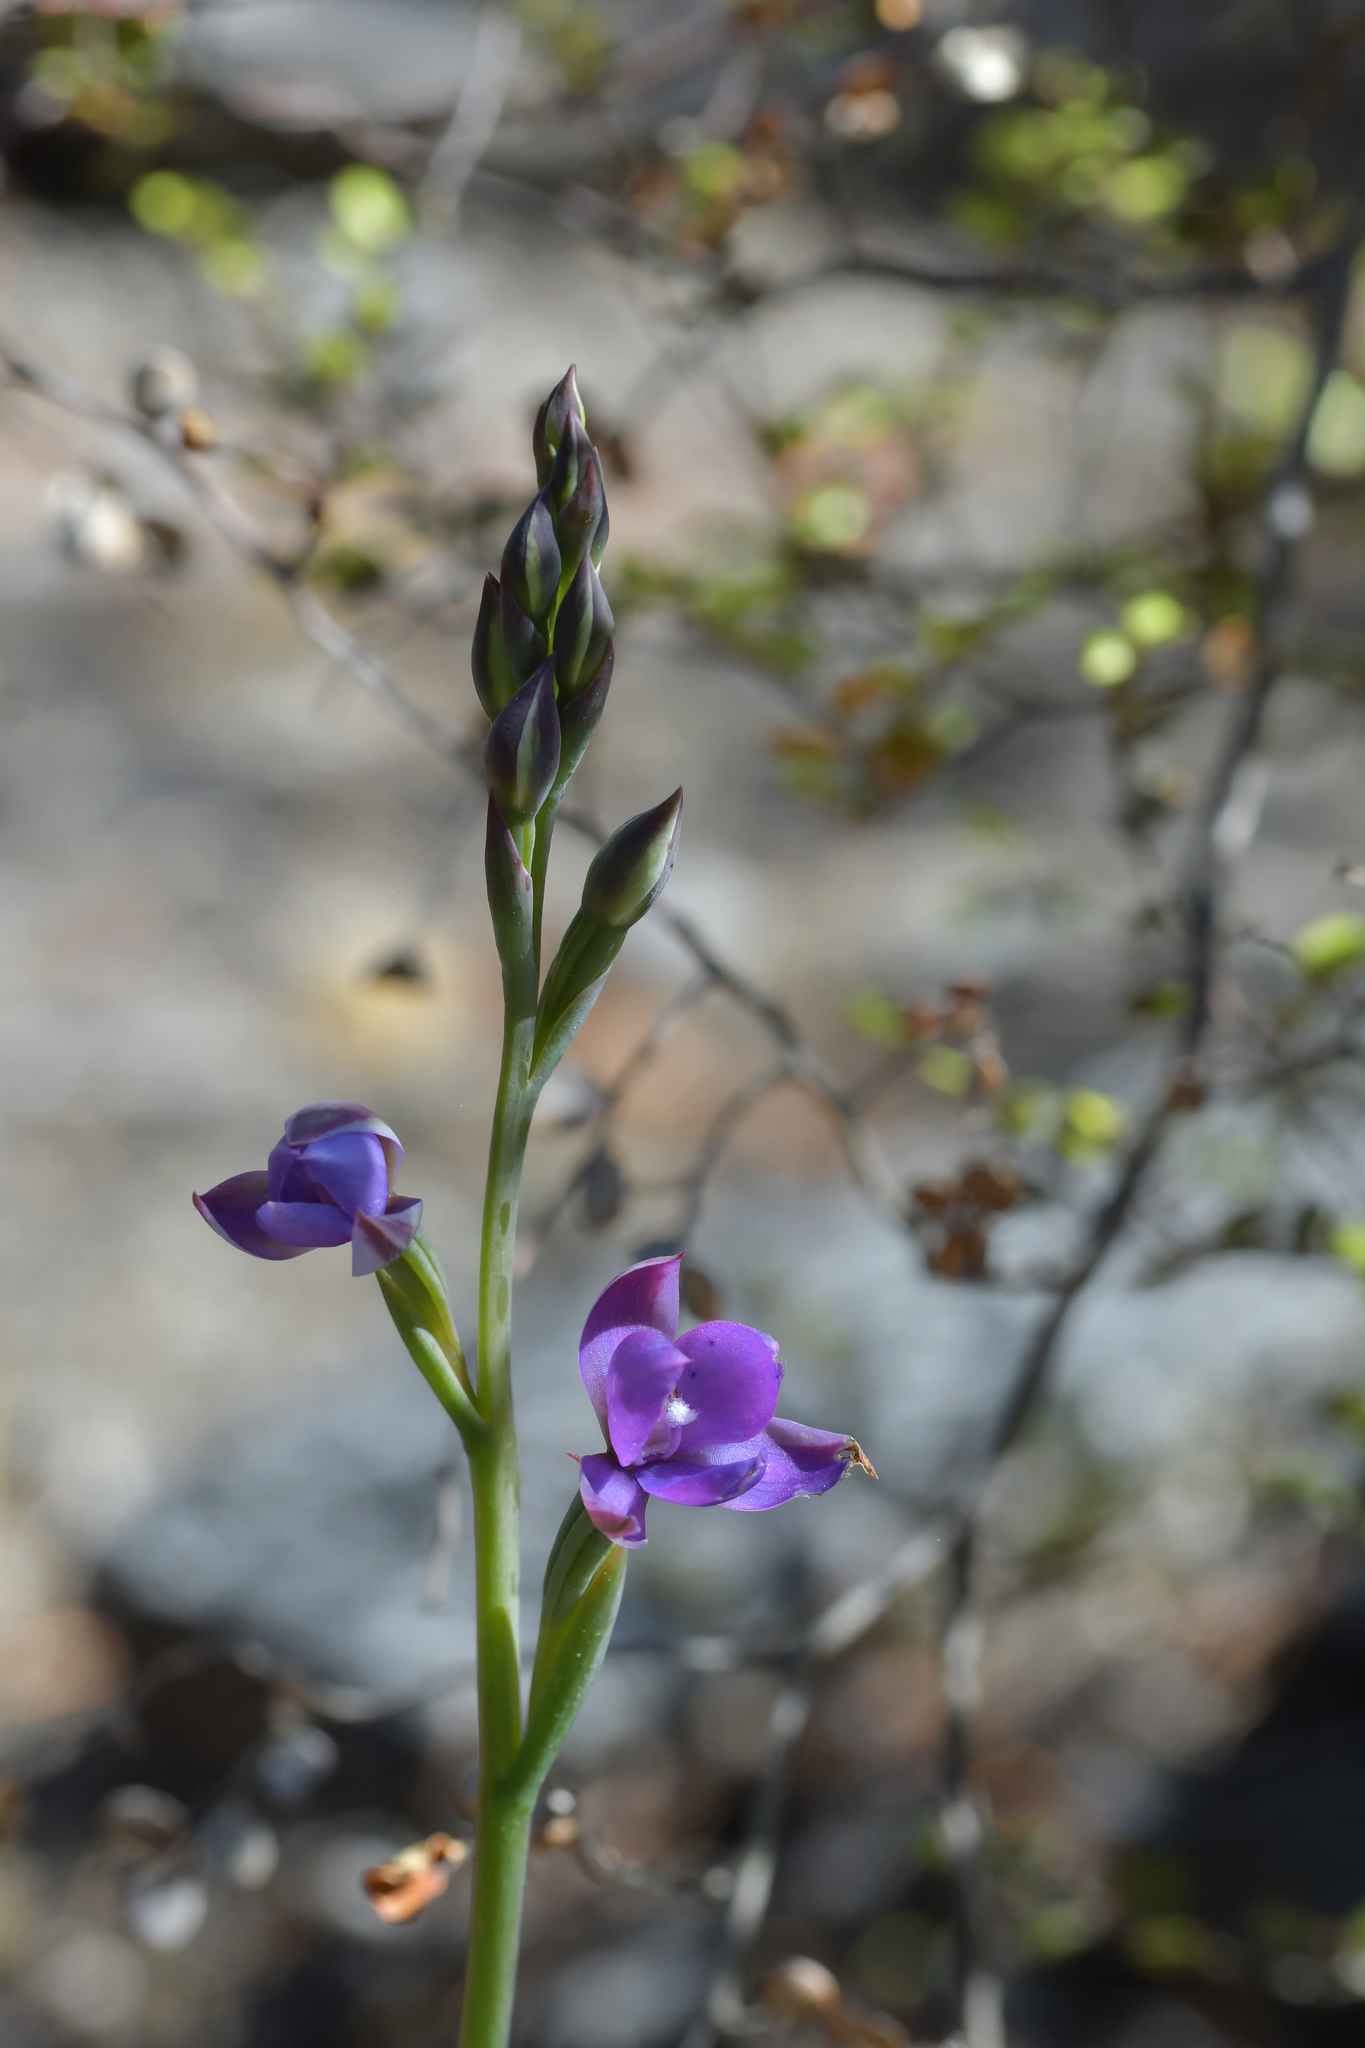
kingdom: Plantae
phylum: Tracheophyta
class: Liliopsida
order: Asparagales
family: Orchidaceae
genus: Thelymitra
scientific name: Thelymitra nervosa
